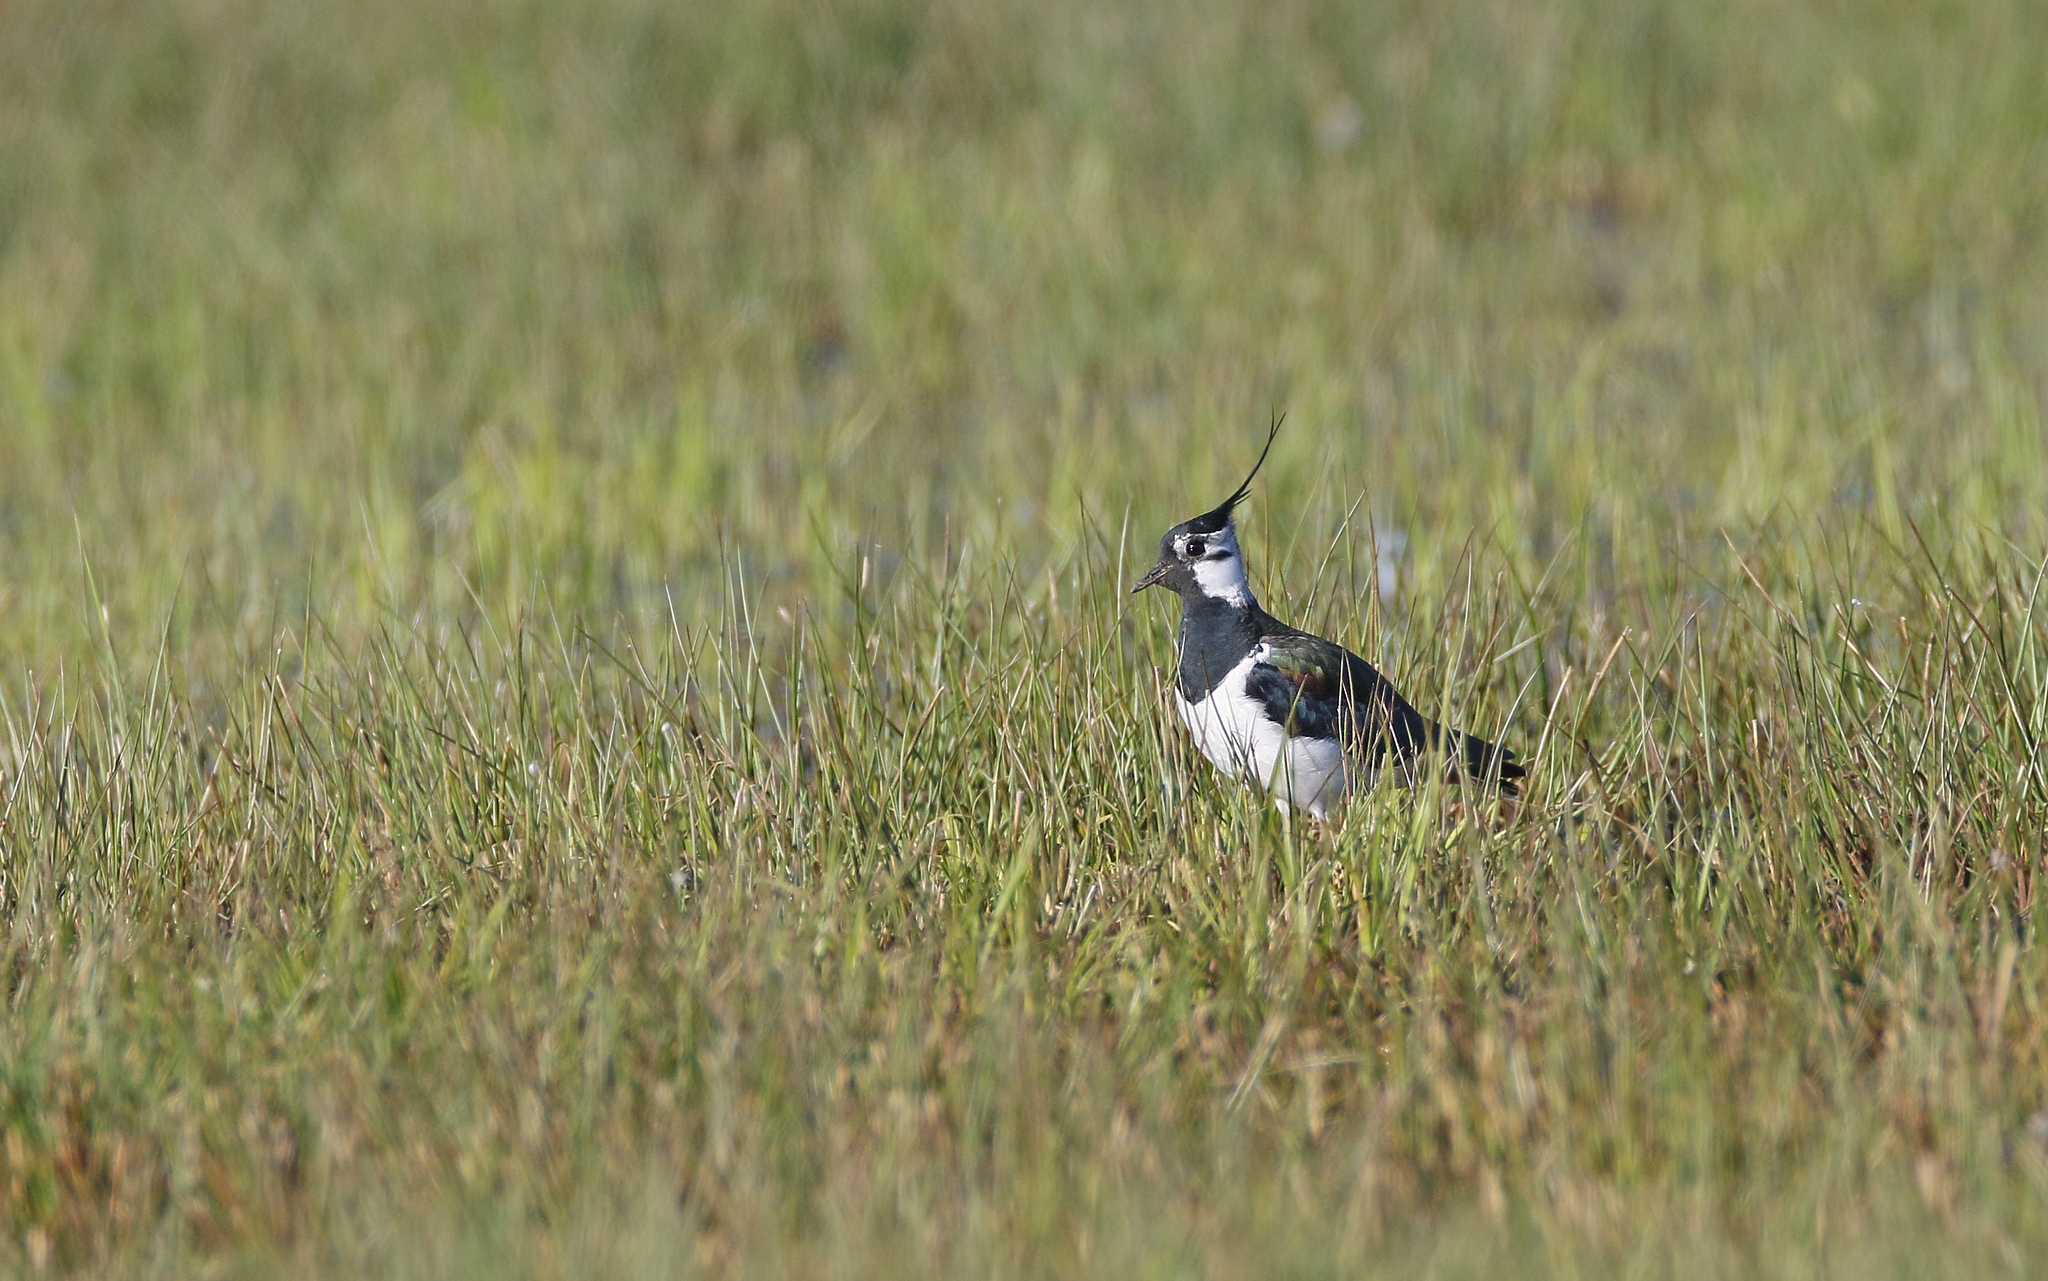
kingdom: Animalia
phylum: Chordata
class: Aves
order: Charadriiformes
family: Charadriidae
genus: Vanellus
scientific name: Vanellus vanellus
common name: Northern lapwing
